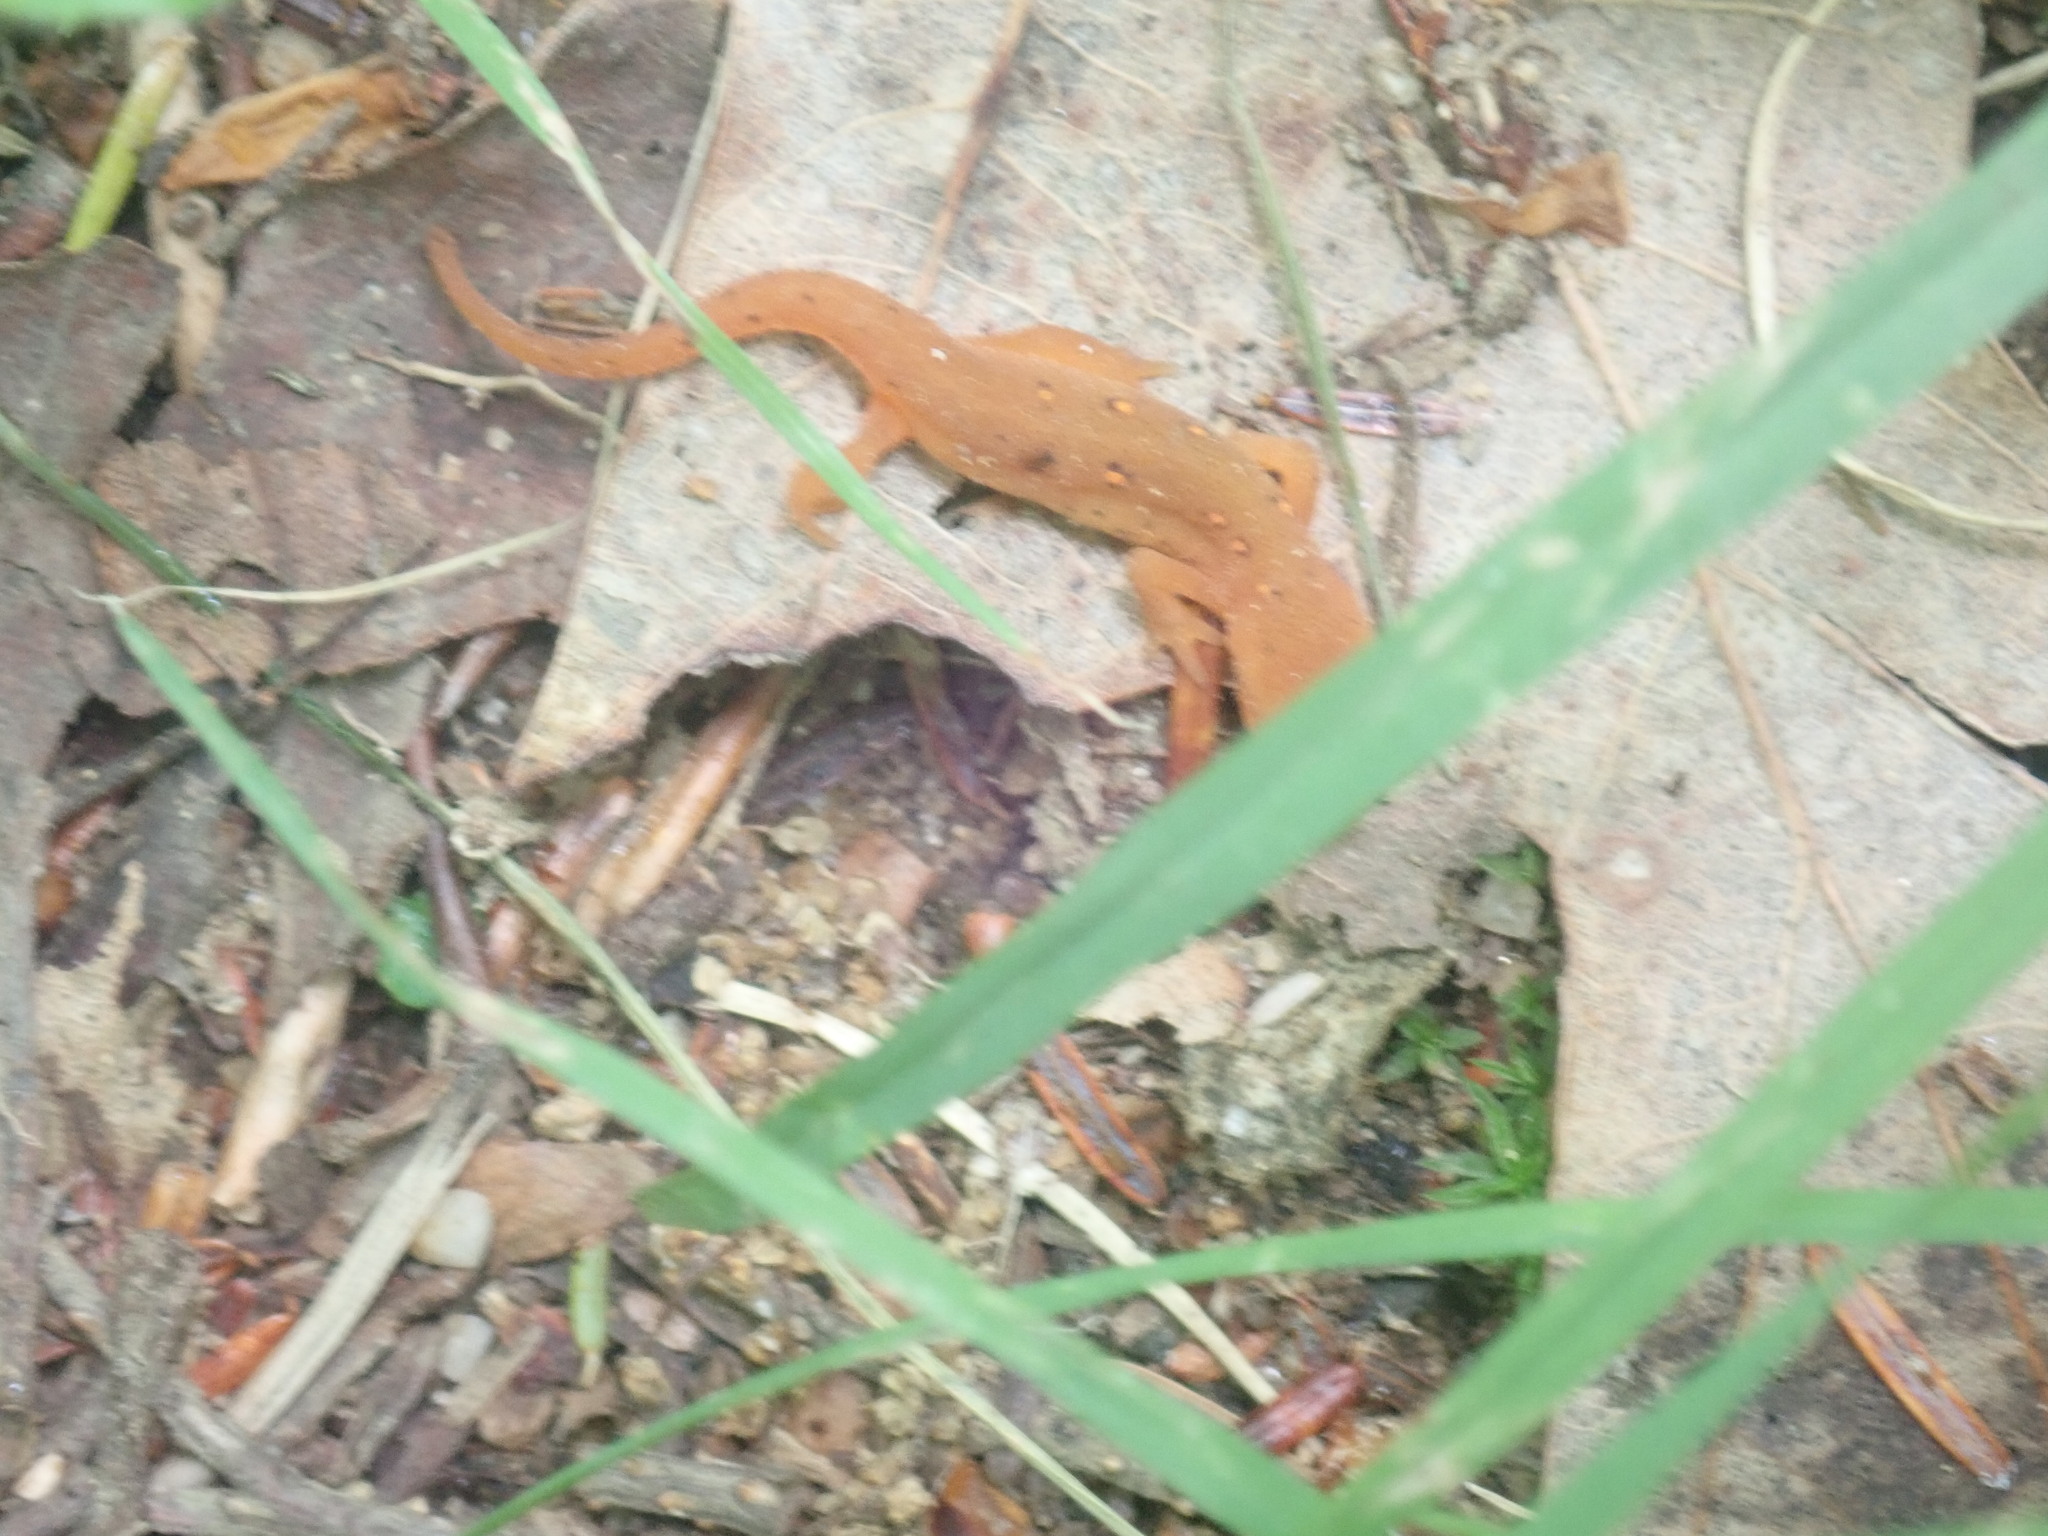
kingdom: Animalia
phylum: Chordata
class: Amphibia
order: Caudata
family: Salamandridae
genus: Notophthalmus
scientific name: Notophthalmus viridescens
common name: Eastern newt
